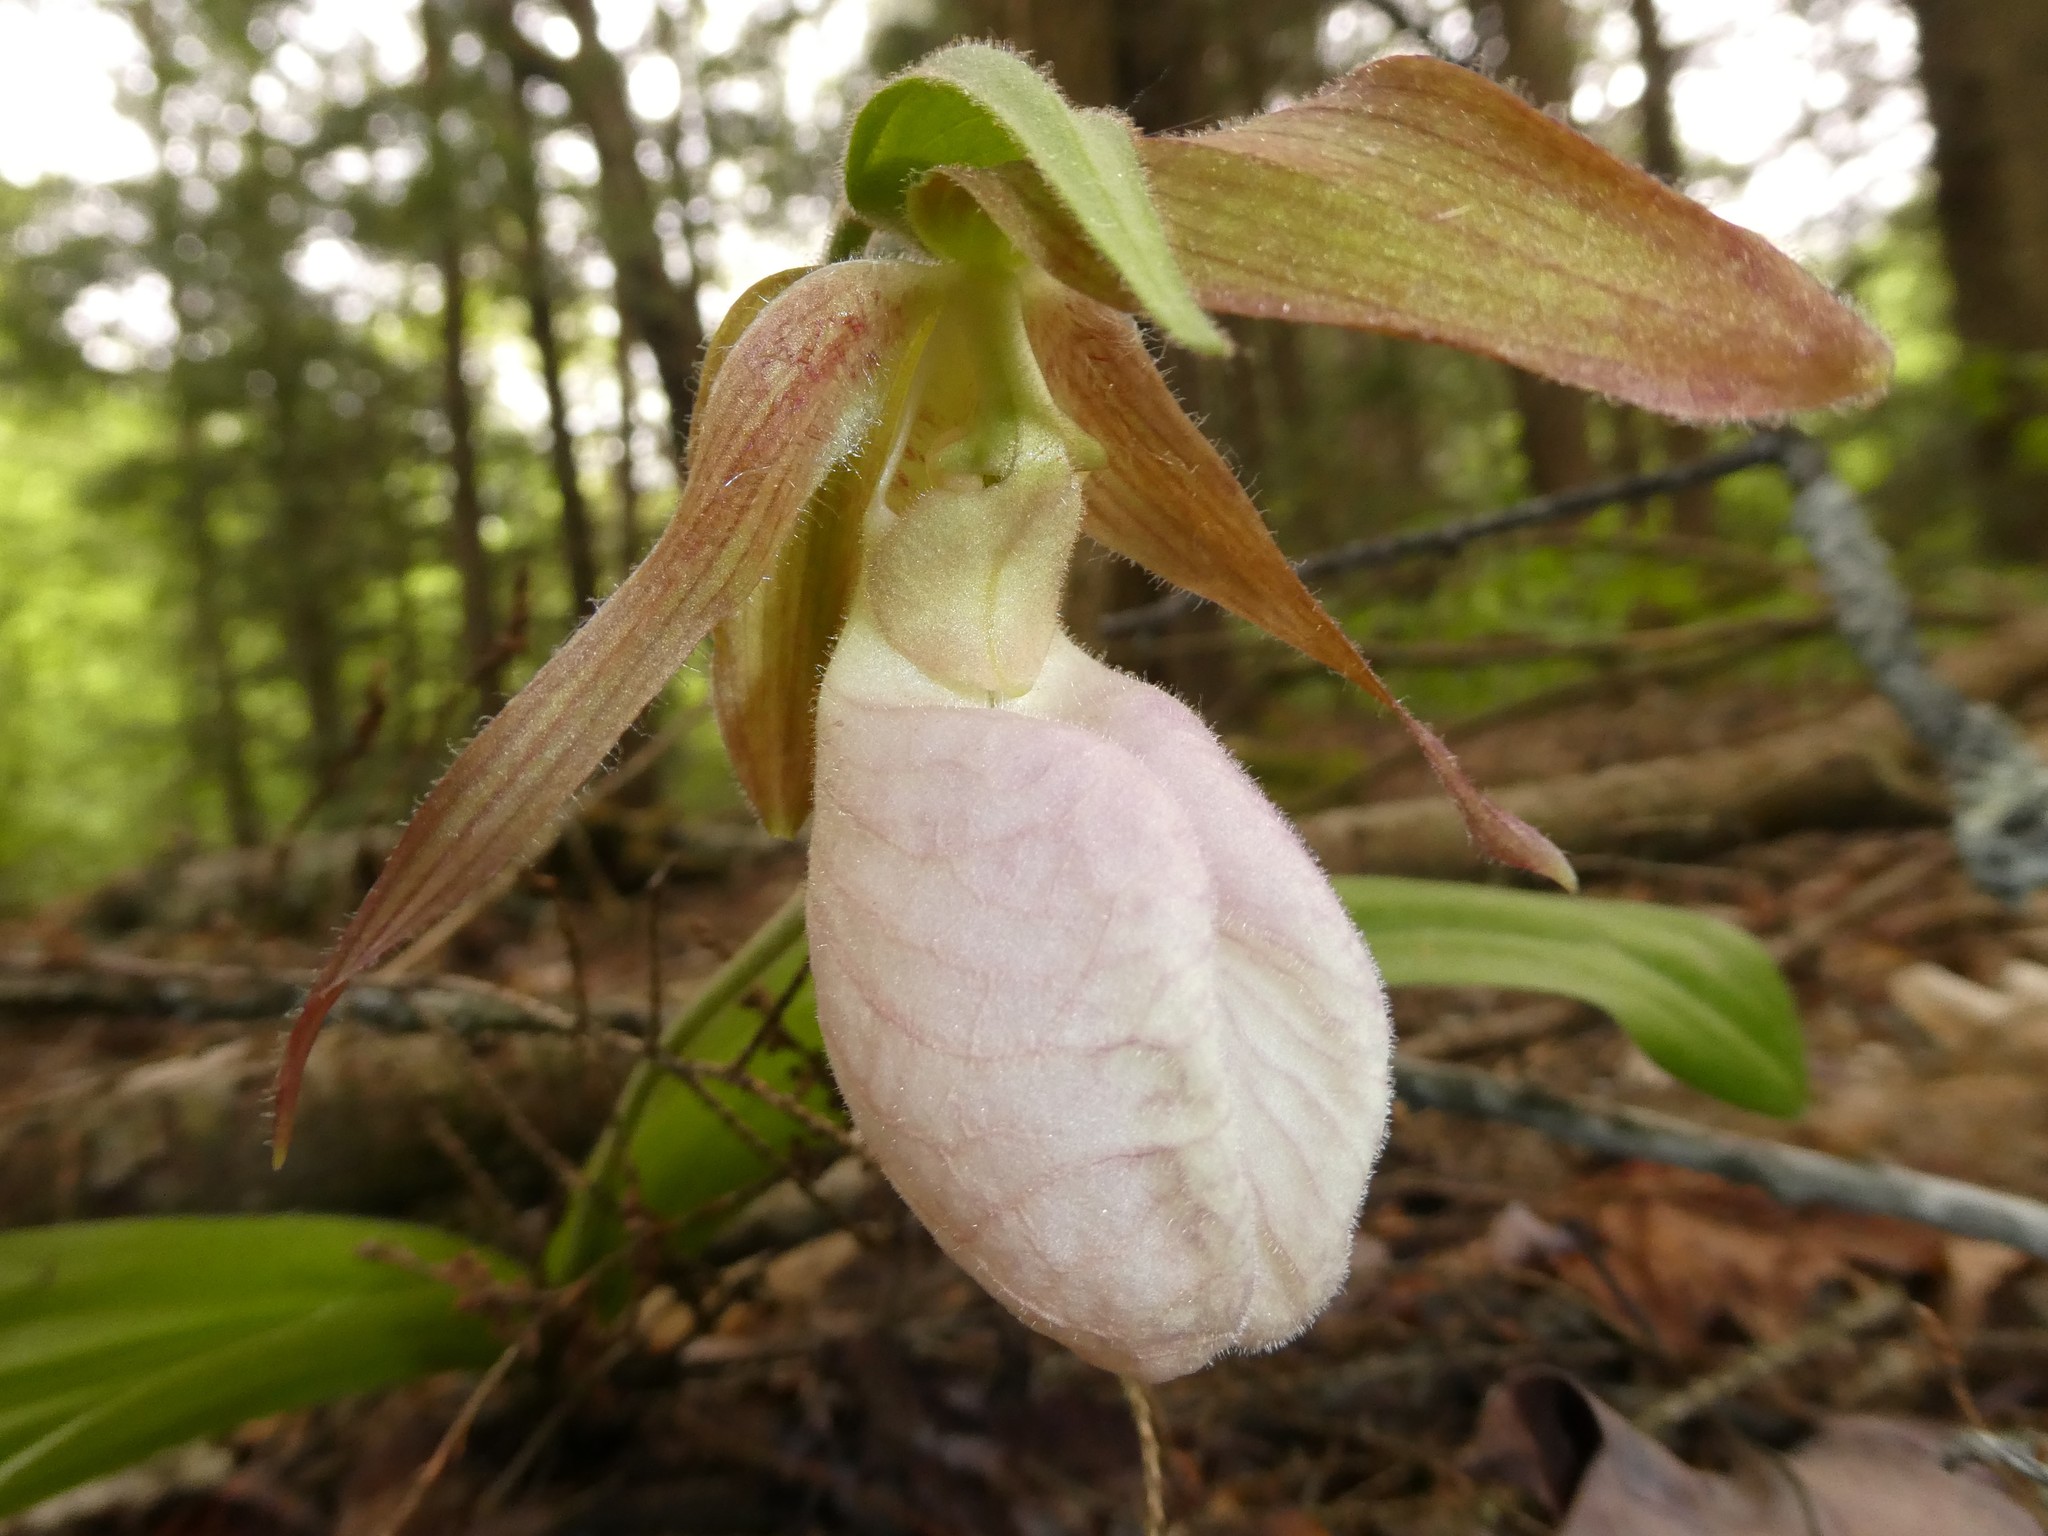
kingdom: Plantae
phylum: Tracheophyta
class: Liliopsida
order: Asparagales
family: Orchidaceae
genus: Cypripedium
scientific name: Cypripedium acaule
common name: Pink lady's-slipper
